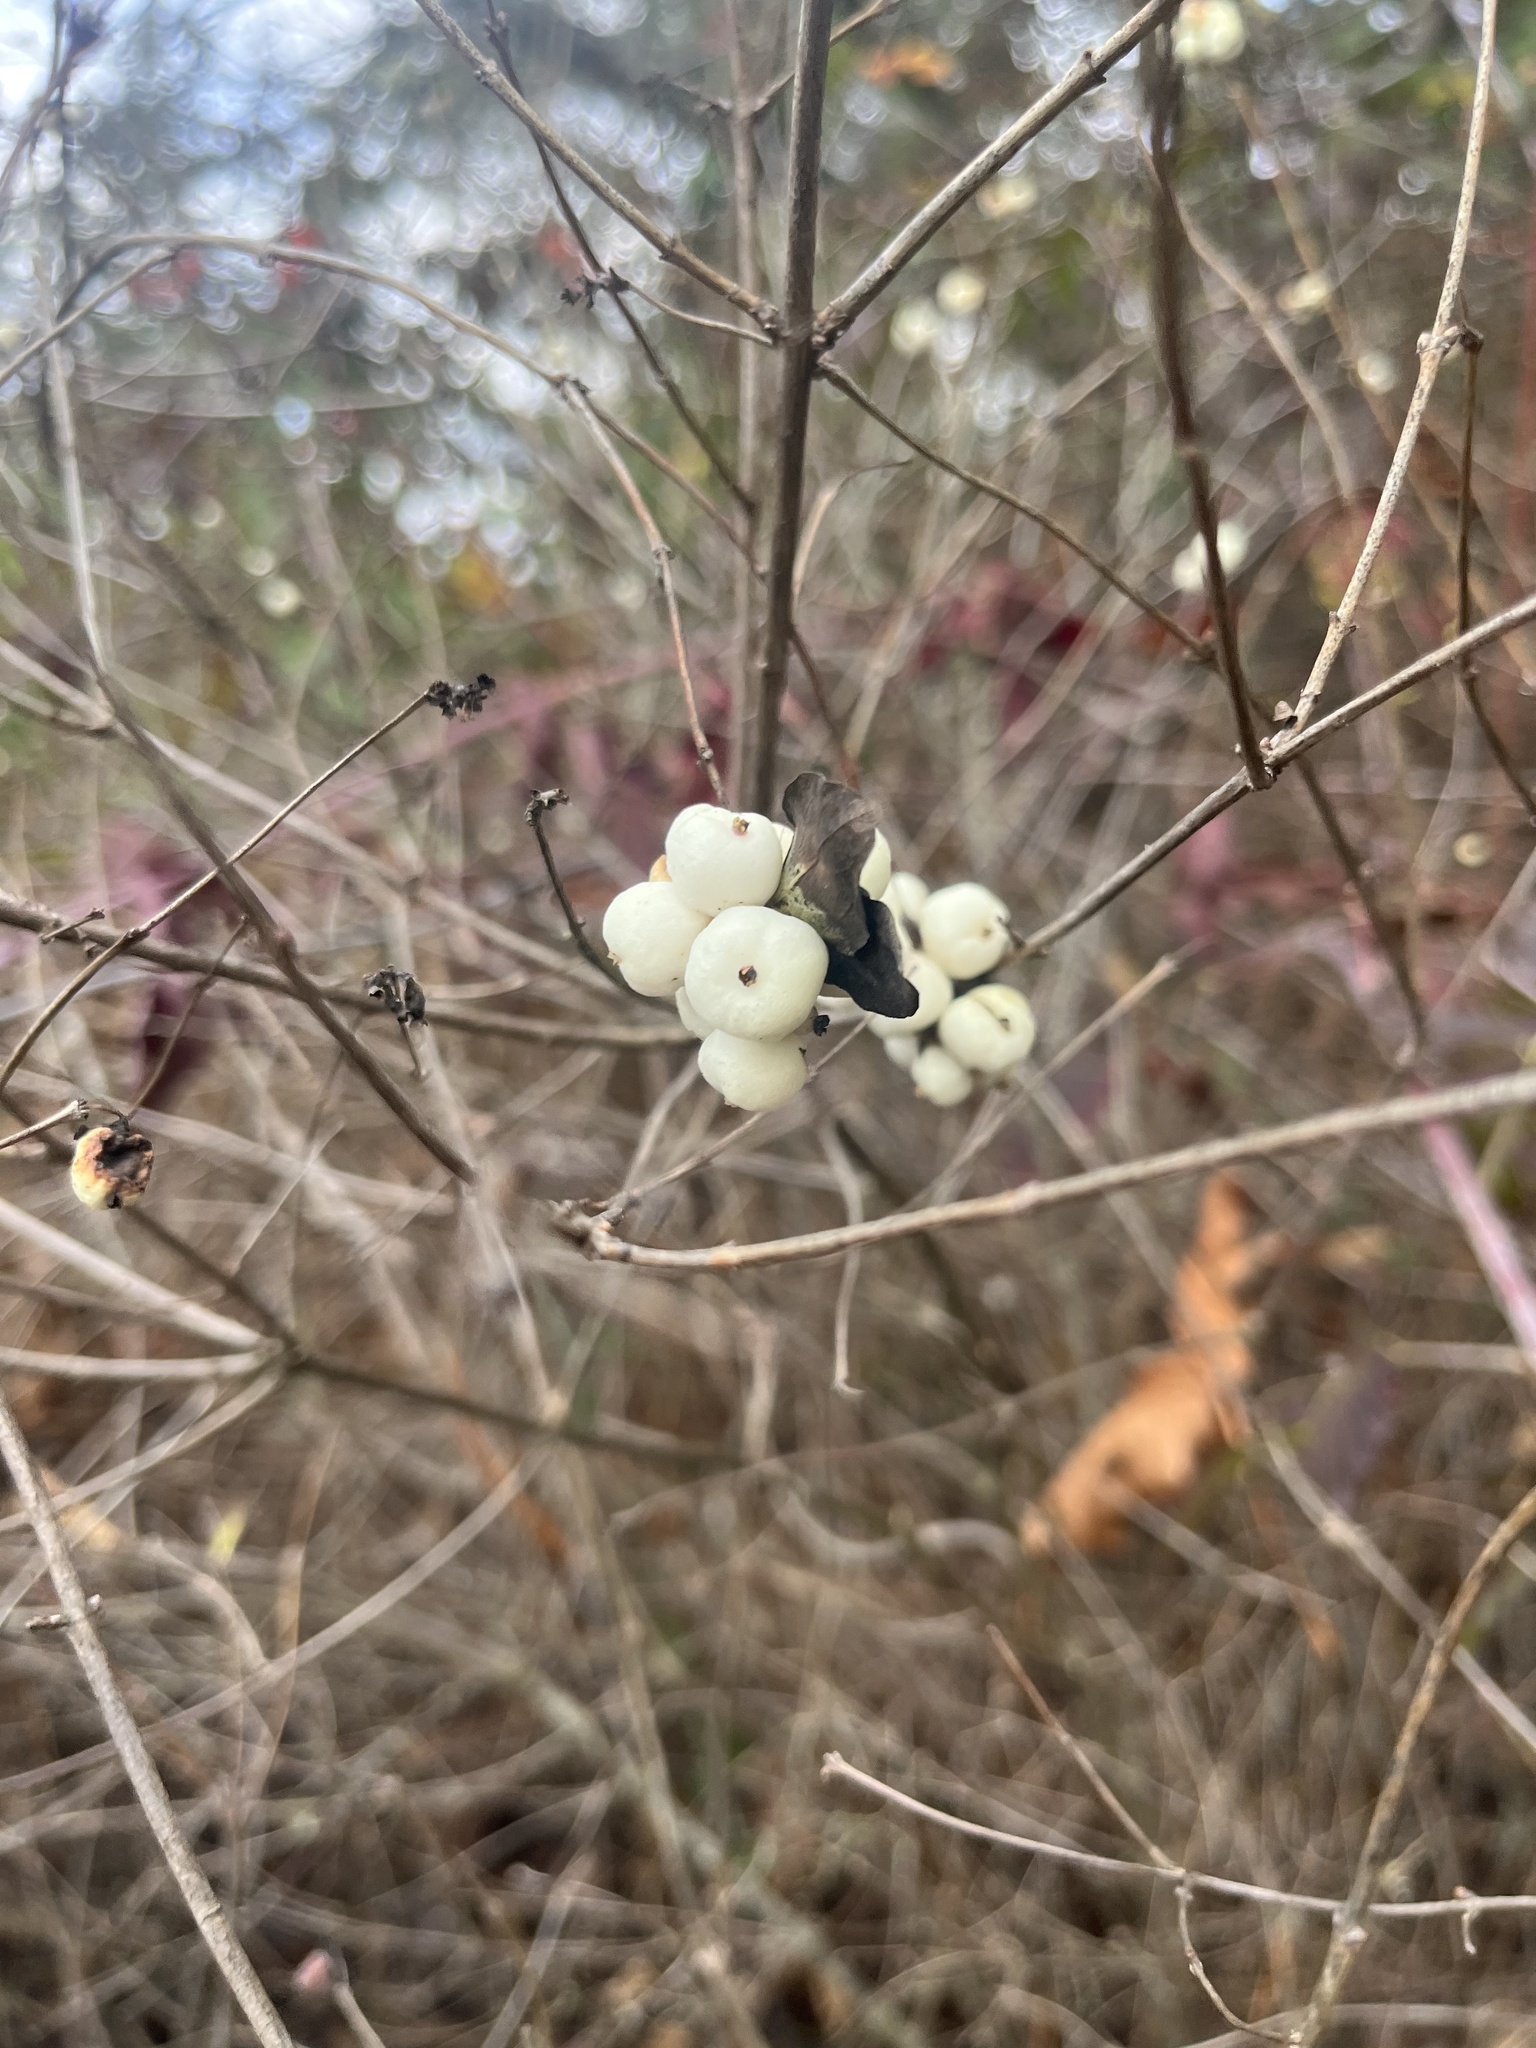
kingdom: Plantae
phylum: Tracheophyta
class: Magnoliopsida
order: Dipsacales
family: Caprifoliaceae
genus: Symphoricarpos
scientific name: Symphoricarpos albus
